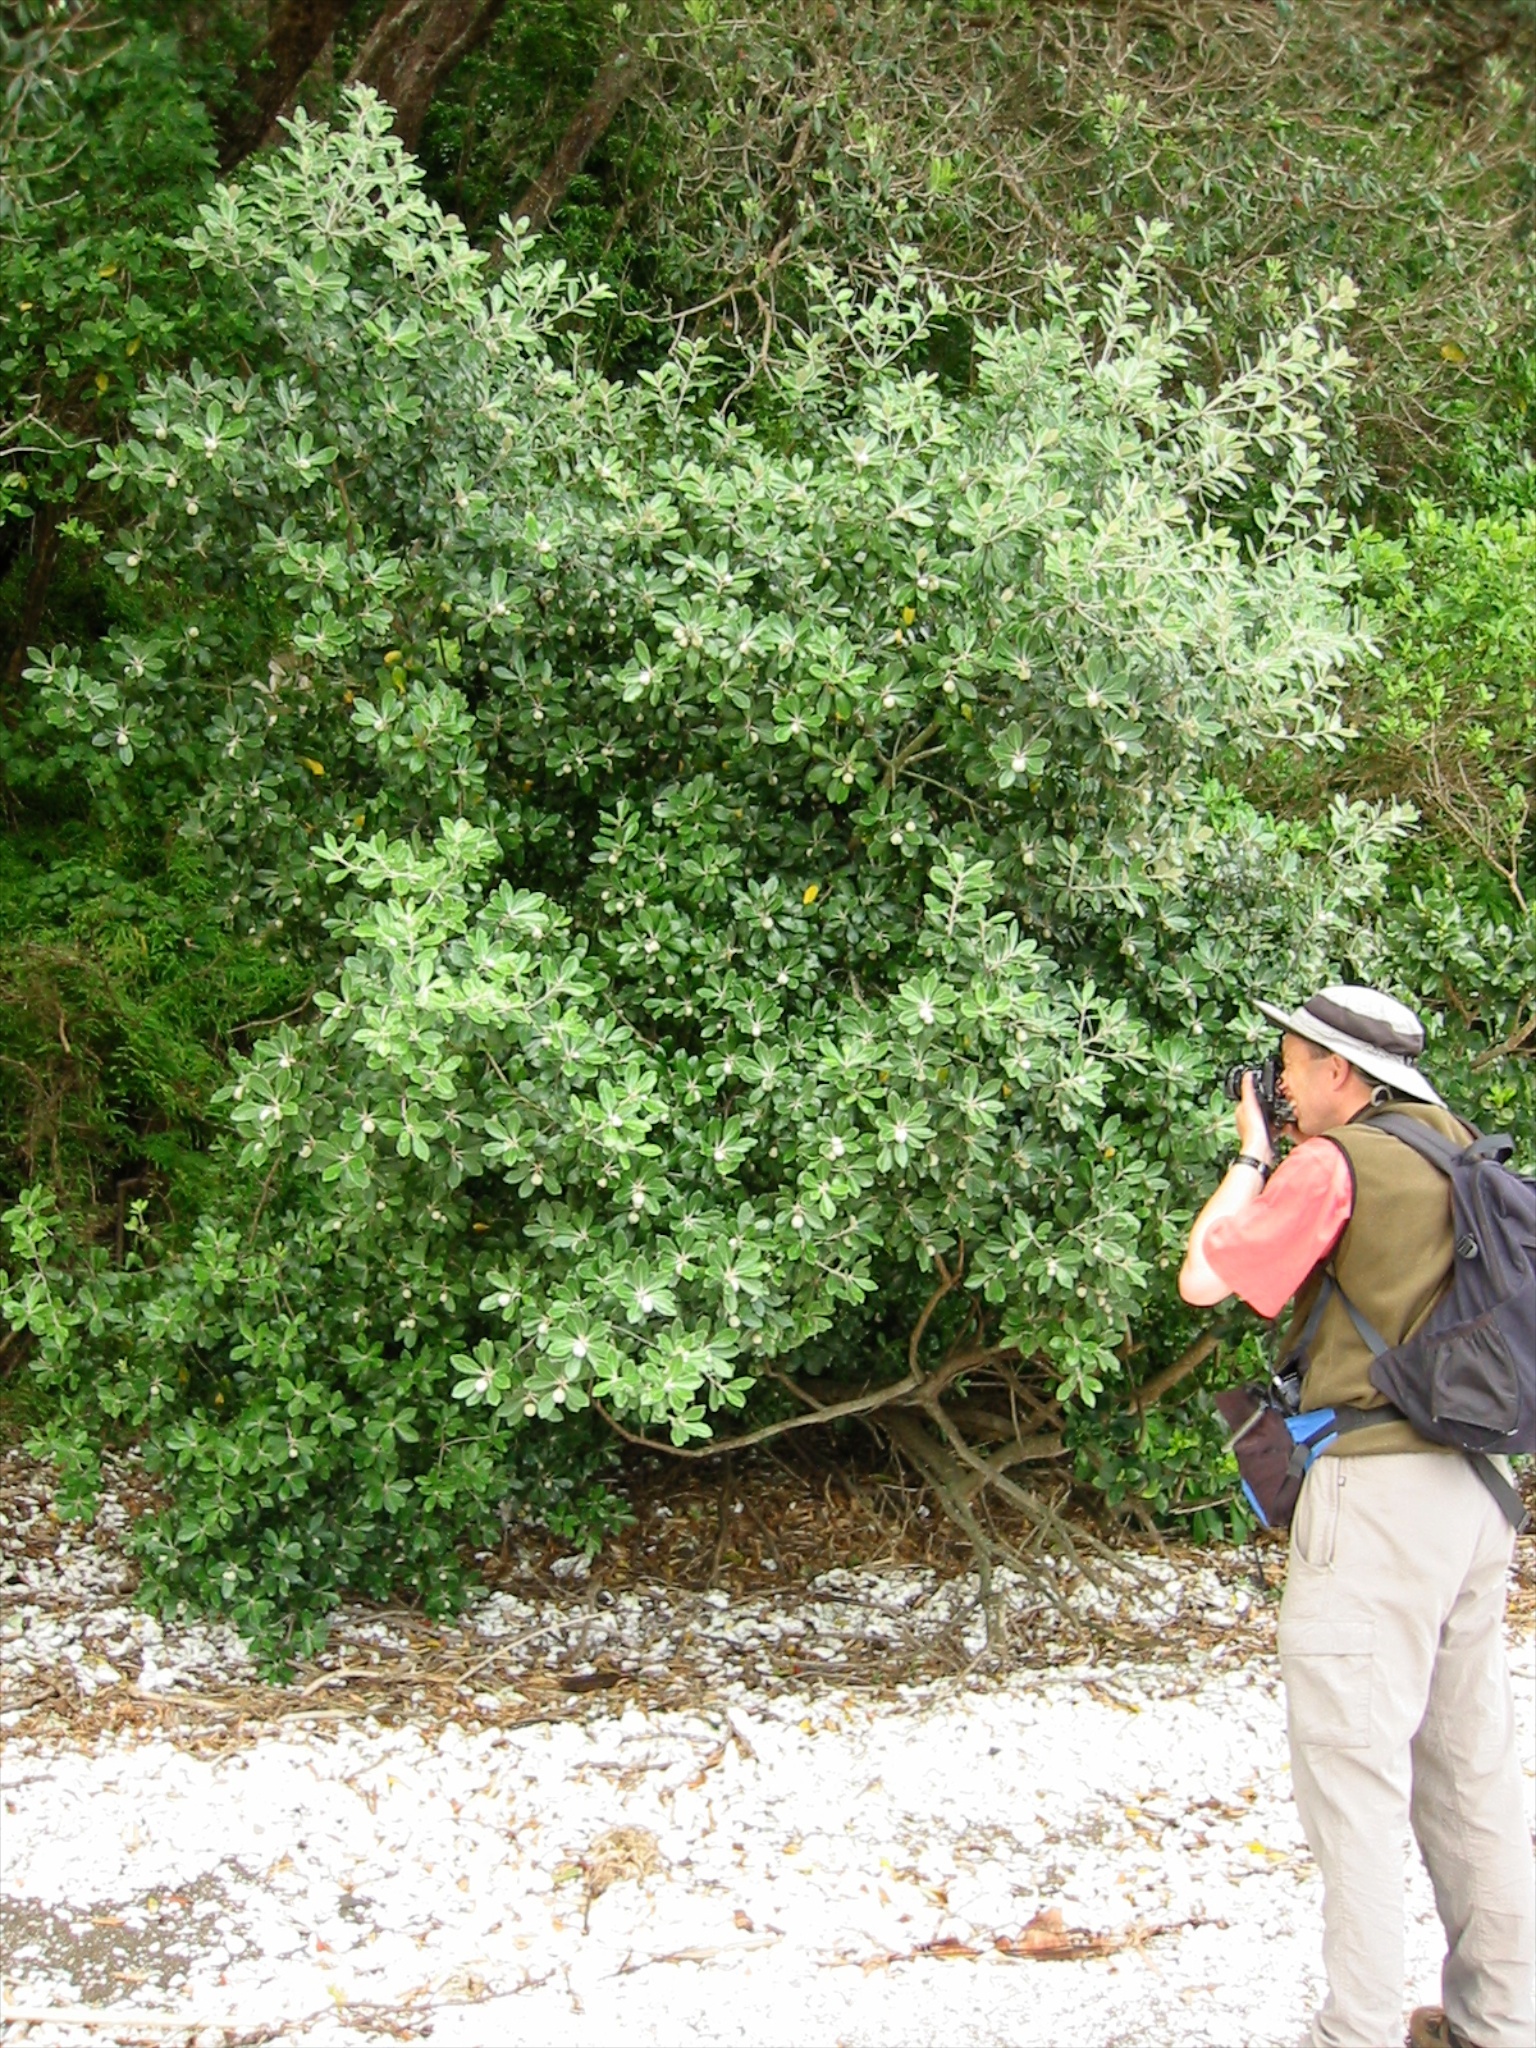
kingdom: Plantae
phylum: Tracheophyta
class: Magnoliopsida
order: Apiales
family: Pittosporaceae
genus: Pittosporum
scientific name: Pittosporum crassifolium
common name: Karo
